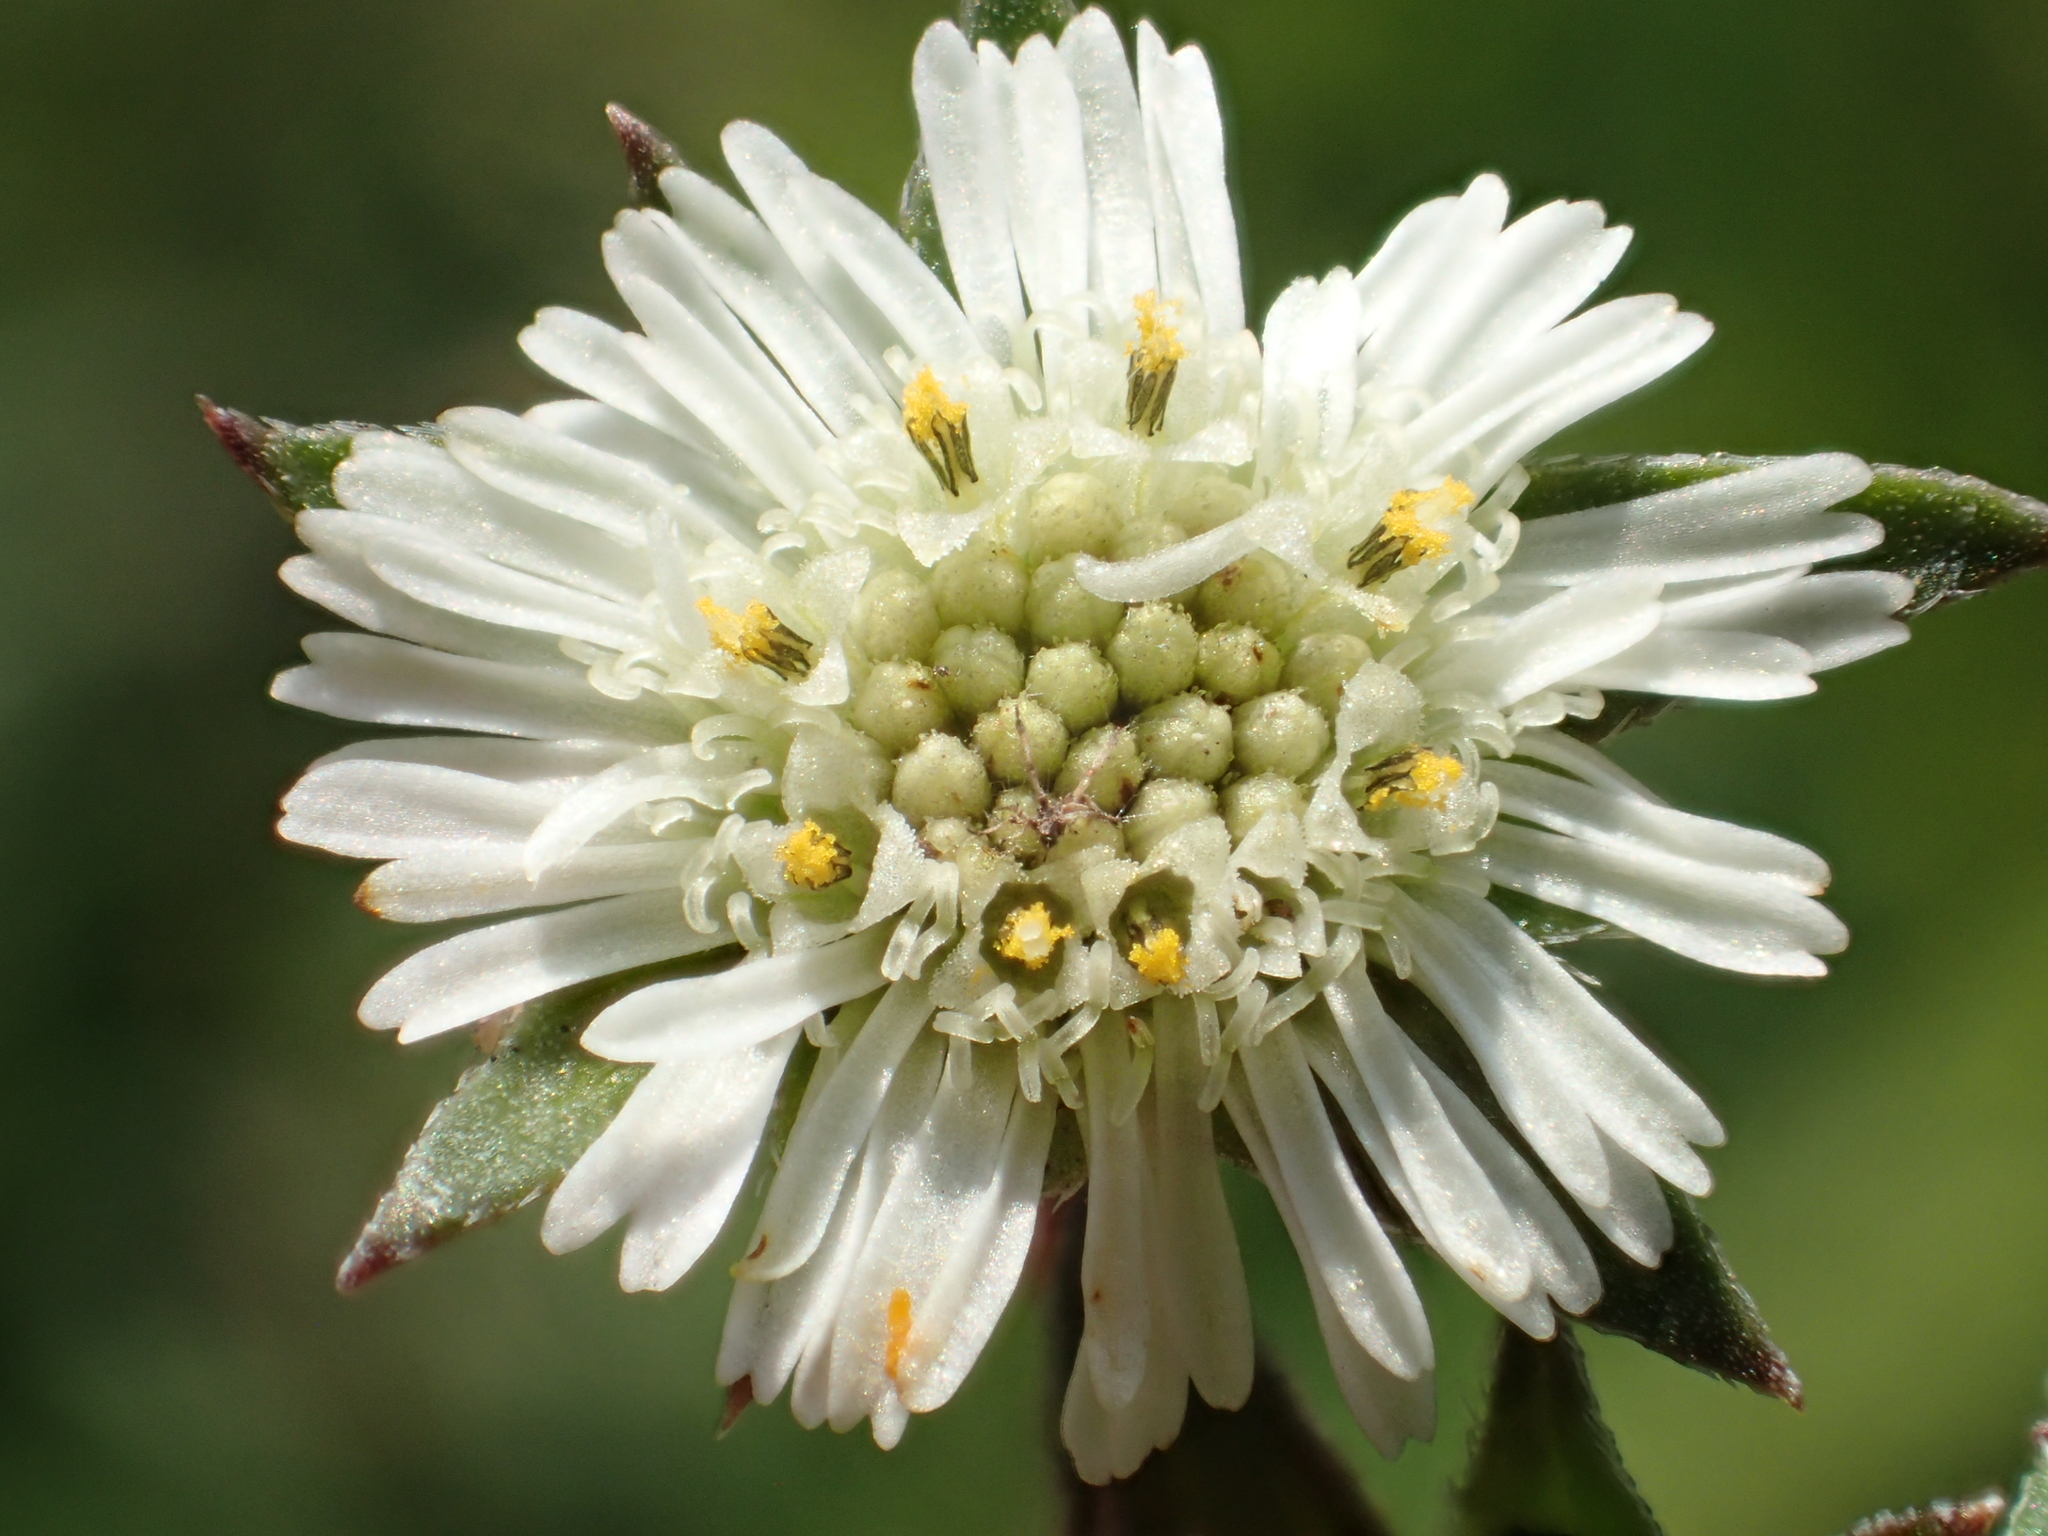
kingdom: Plantae
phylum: Tracheophyta
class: Magnoliopsida
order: Asterales
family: Asteraceae
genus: Eclipta
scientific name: Eclipta prostrata
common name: False daisy
